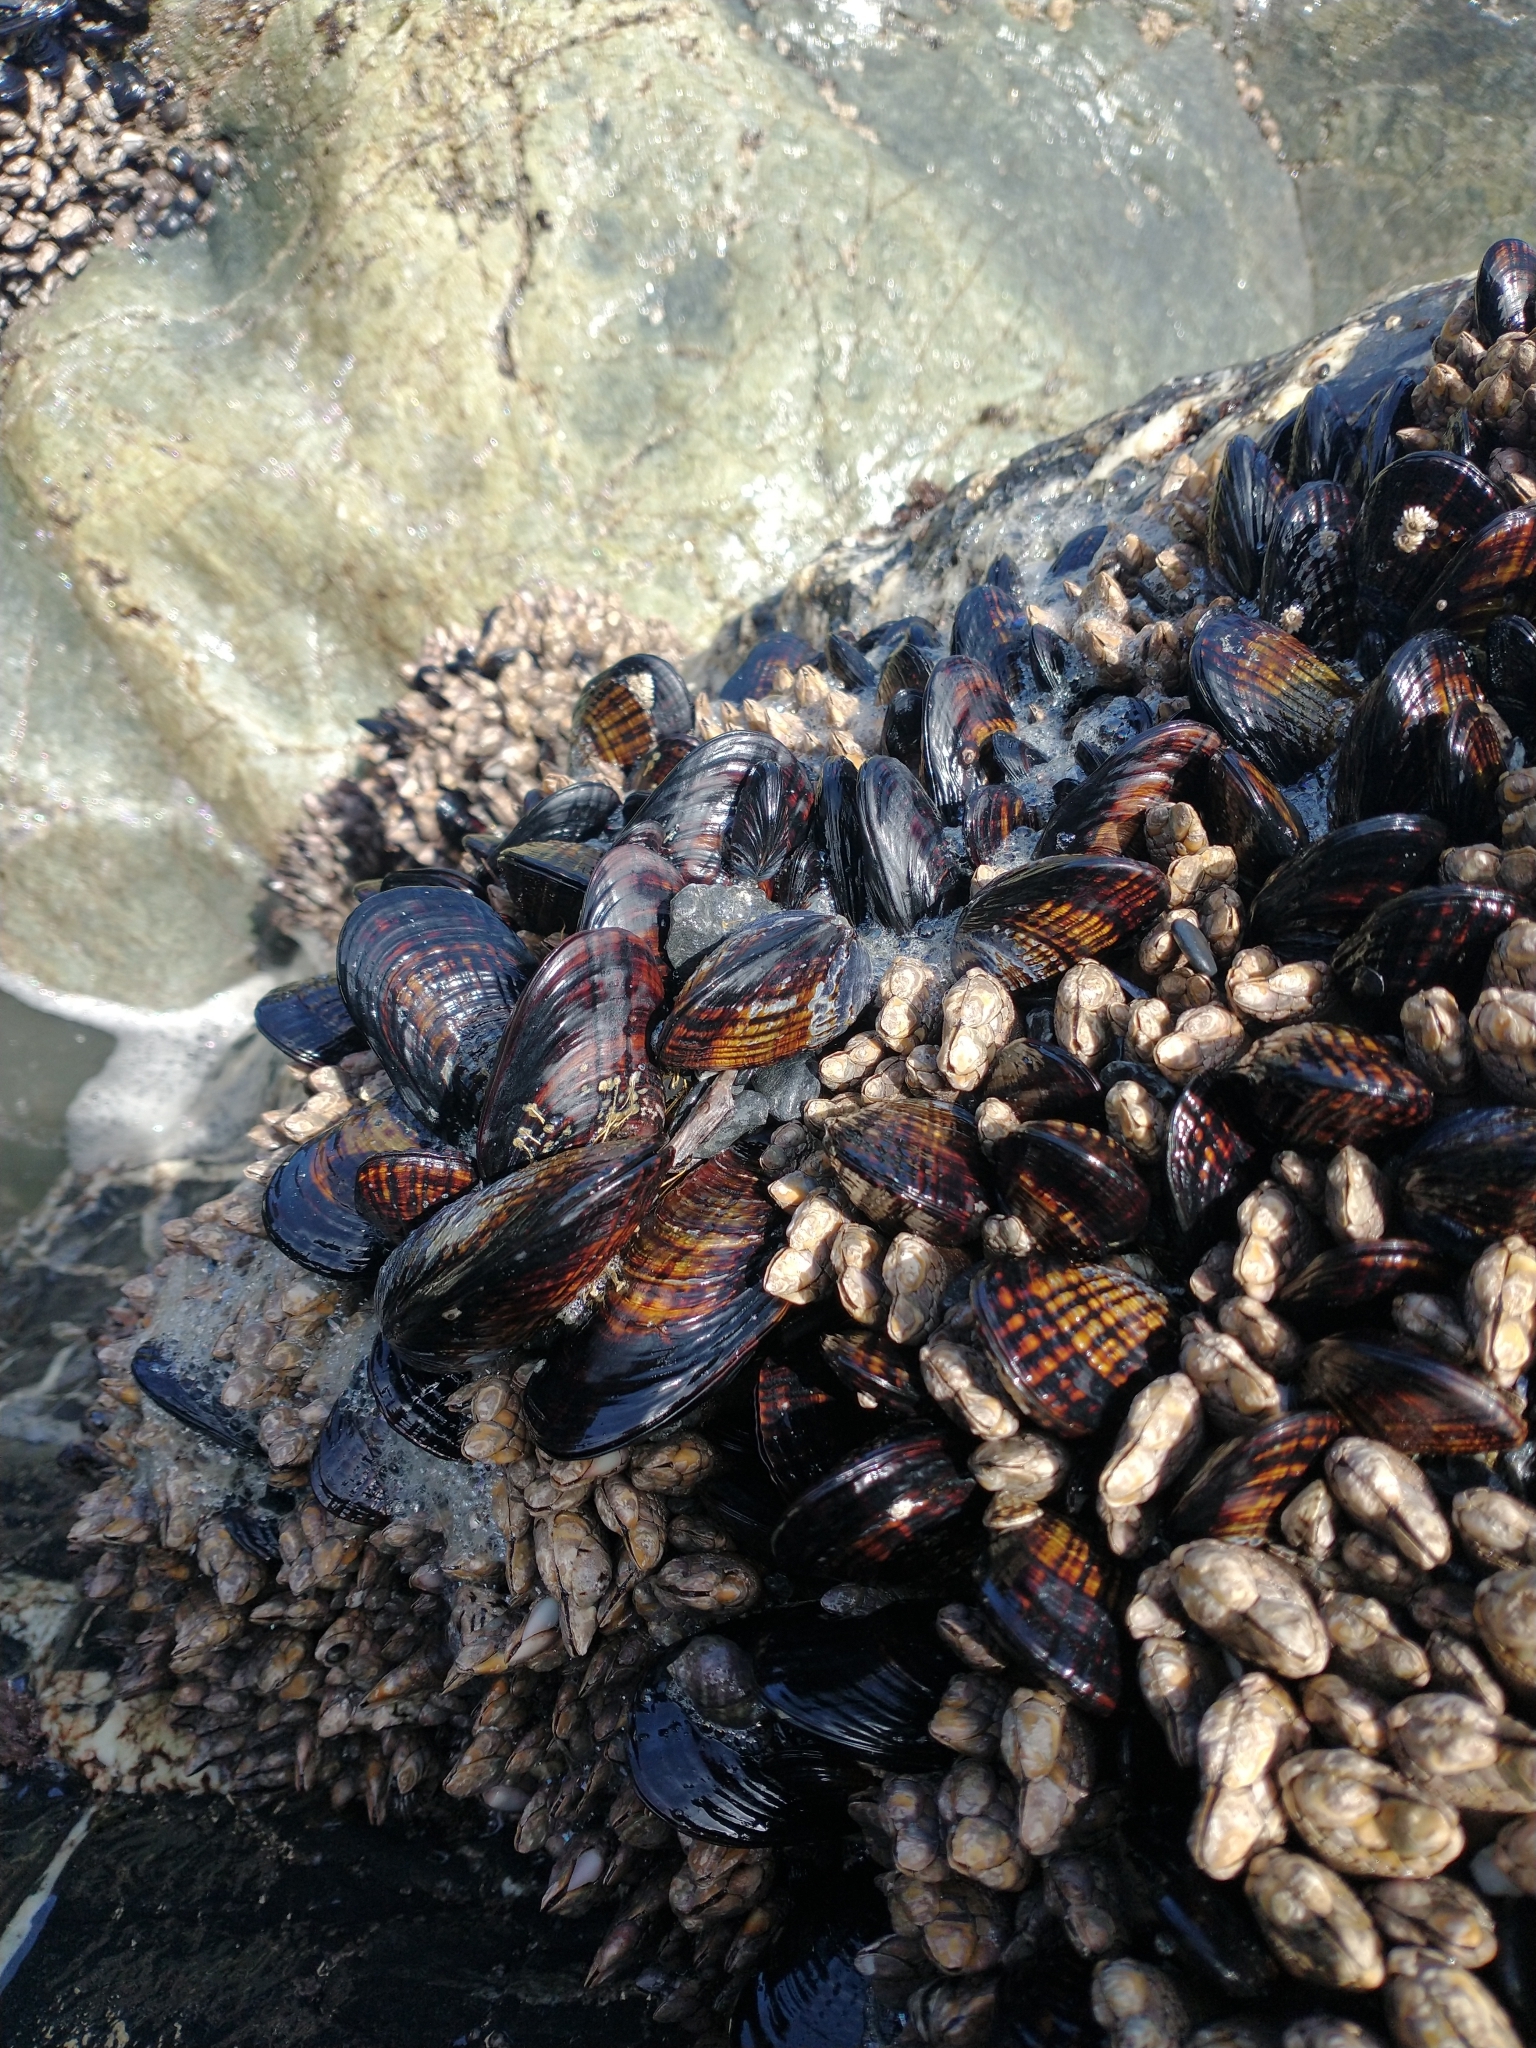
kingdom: Animalia
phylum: Arthropoda
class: Maxillopoda
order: Pedunculata
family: Pollicipedidae
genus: Pollicipes
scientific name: Pollicipes polymerus
